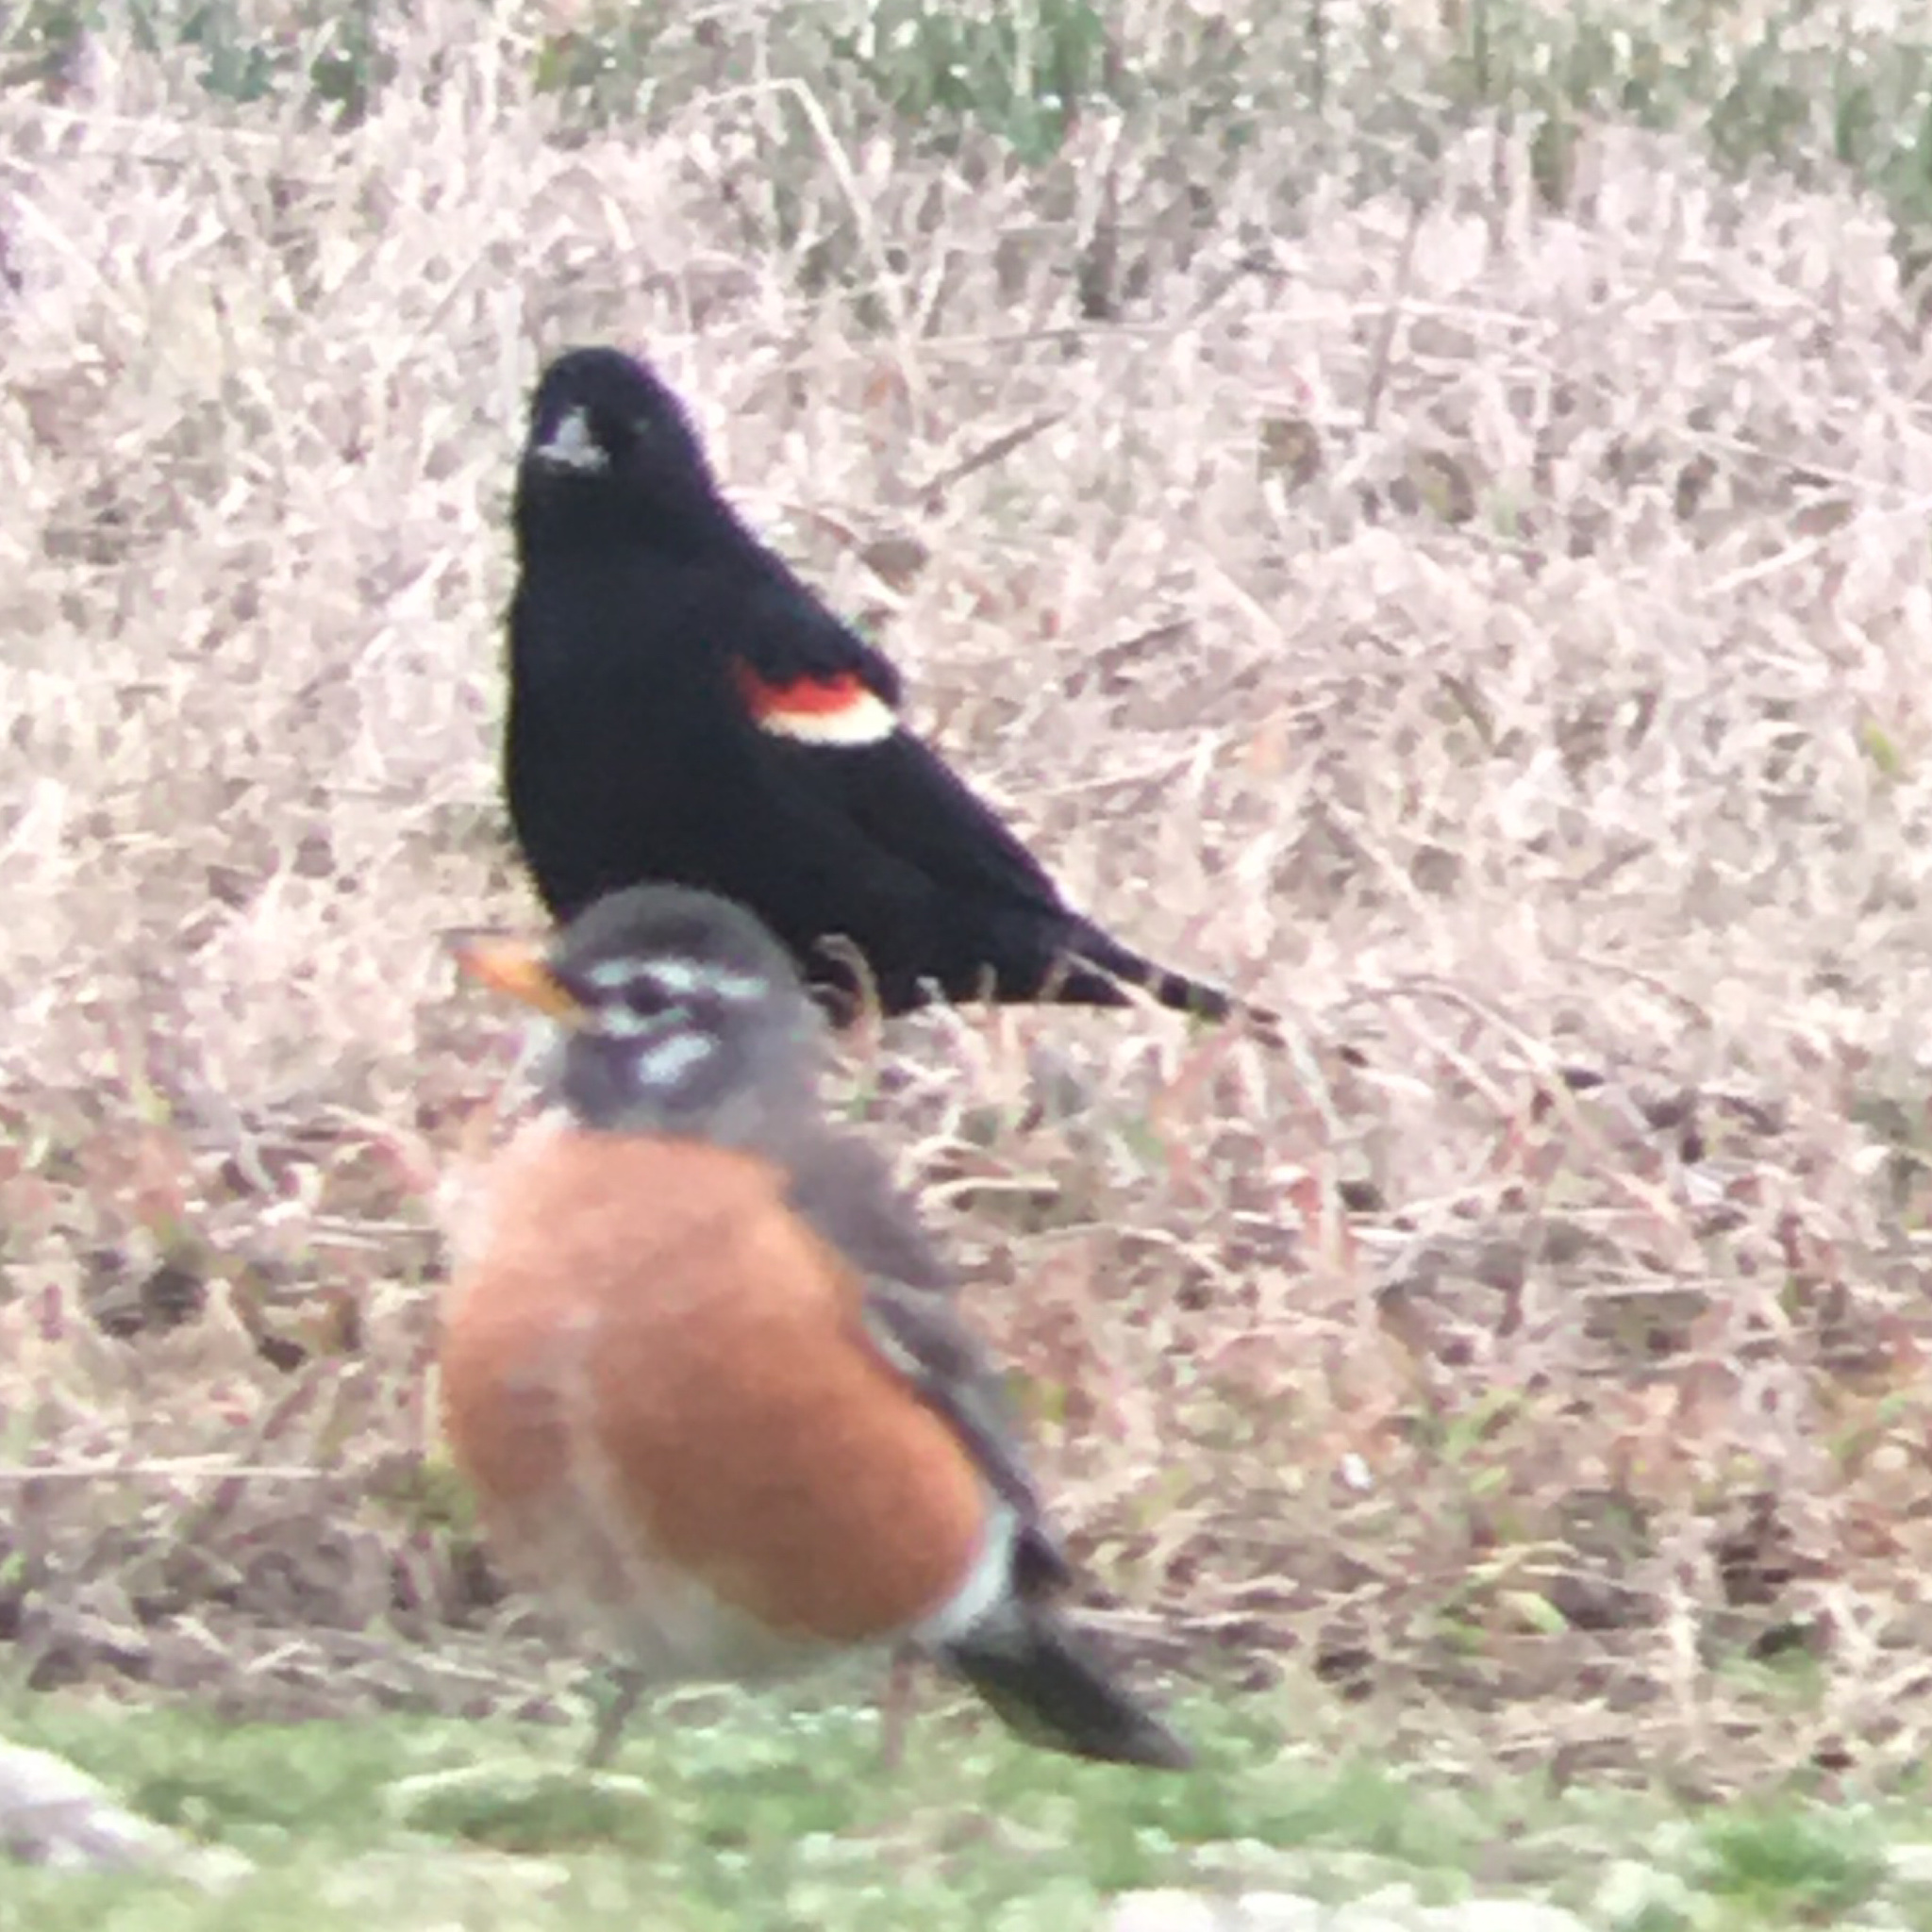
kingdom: Animalia
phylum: Chordata
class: Aves
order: Passeriformes
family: Icteridae
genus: Agelaius
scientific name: Agelaius phoeniceus
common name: Red-winged blackbird
